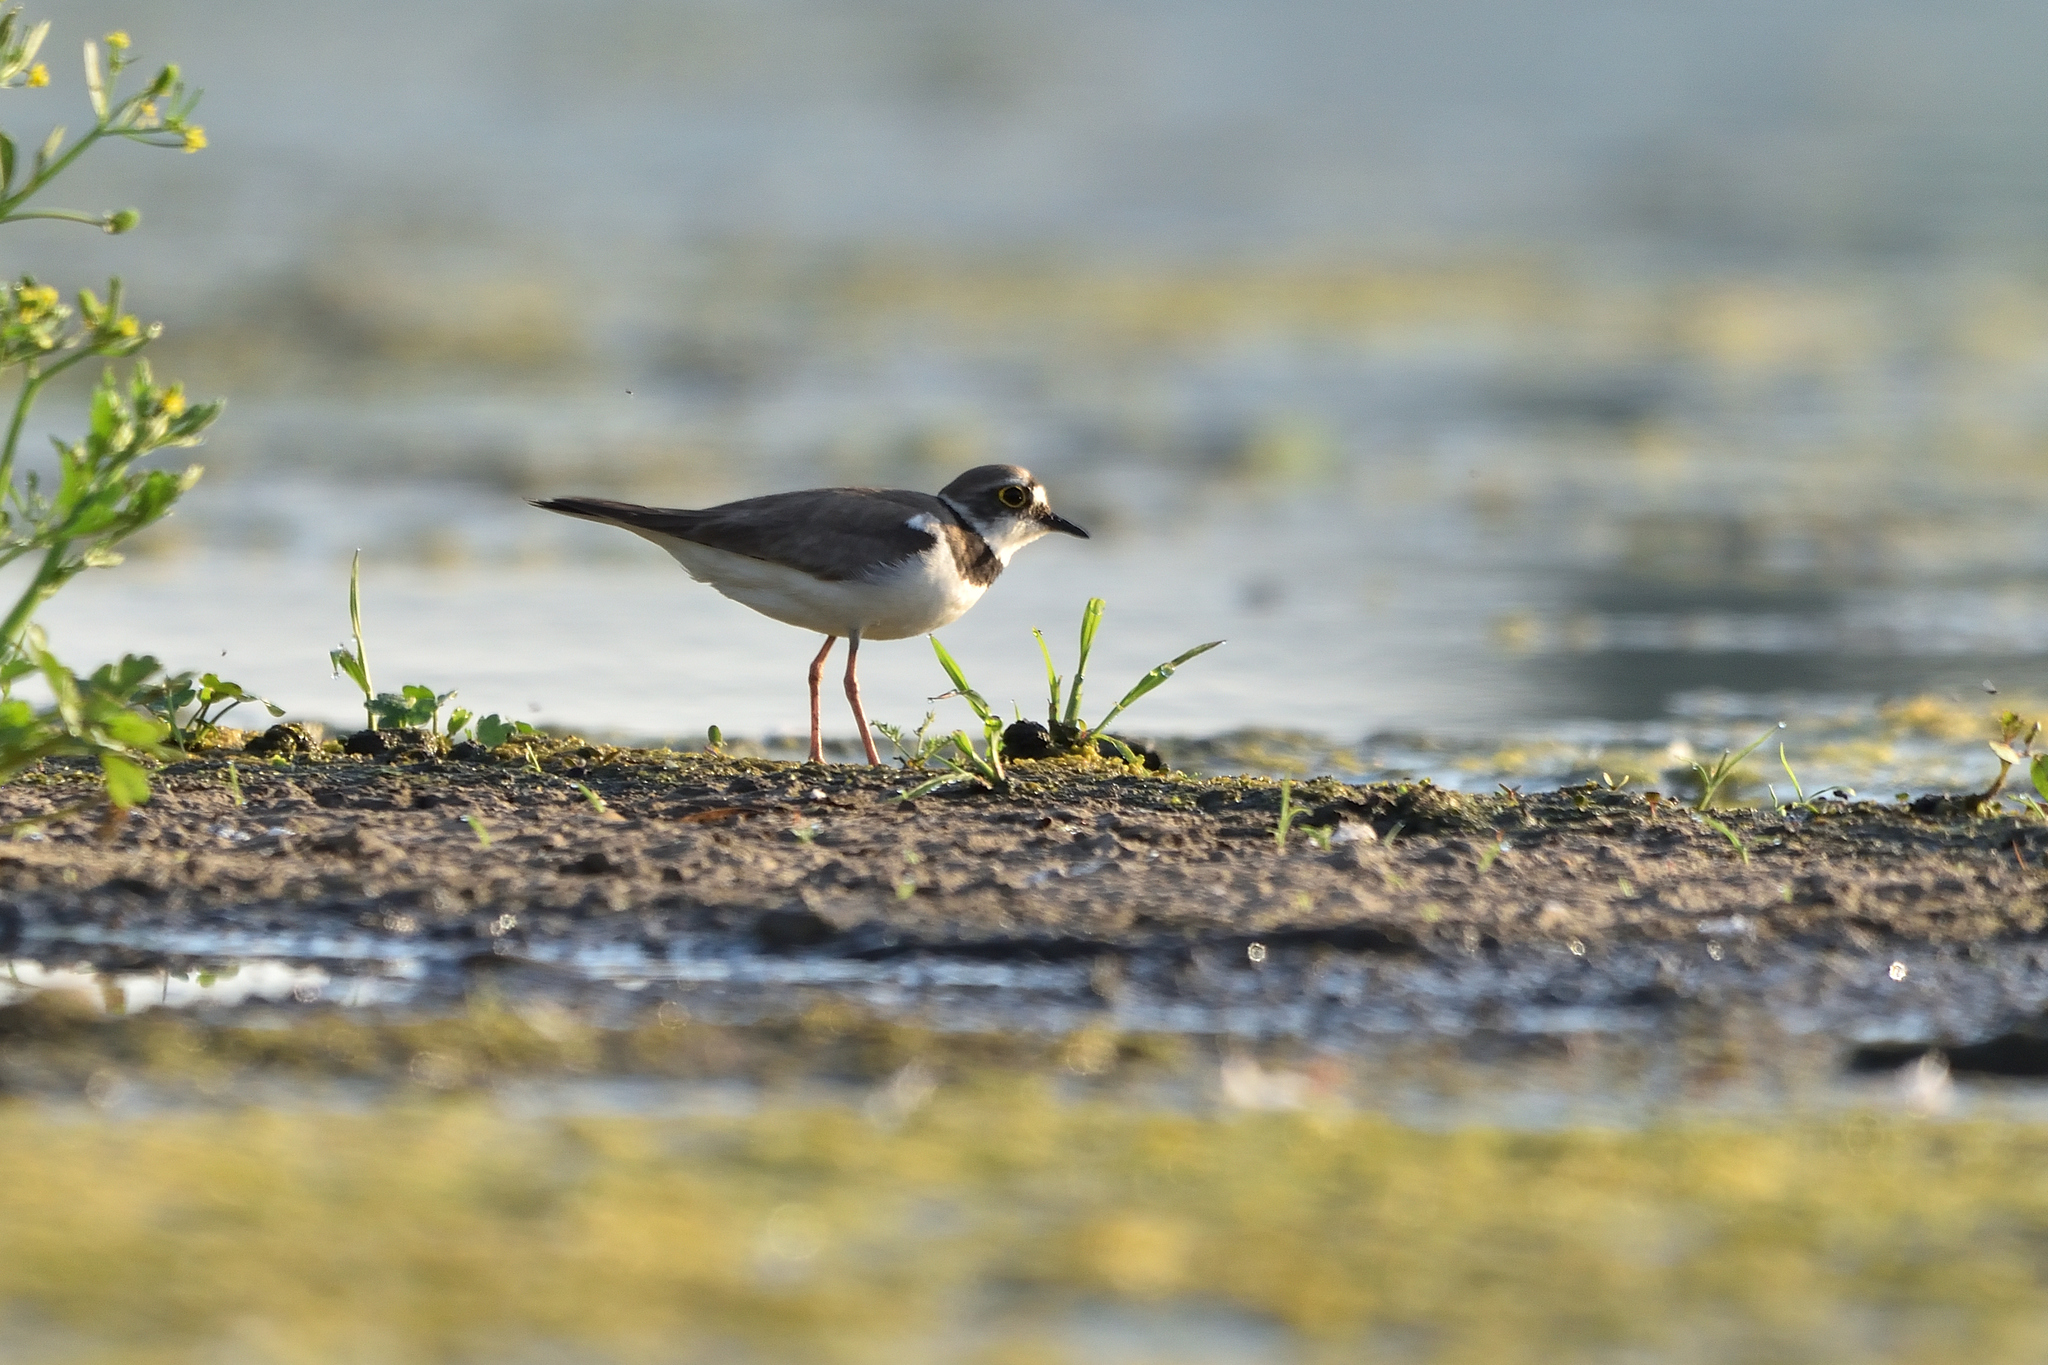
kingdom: Animalia
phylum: Chordata
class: Aves
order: Charadriiformes
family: Charadriidae
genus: Charadrius
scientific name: Charadrius dubius
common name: Little ringed plover
